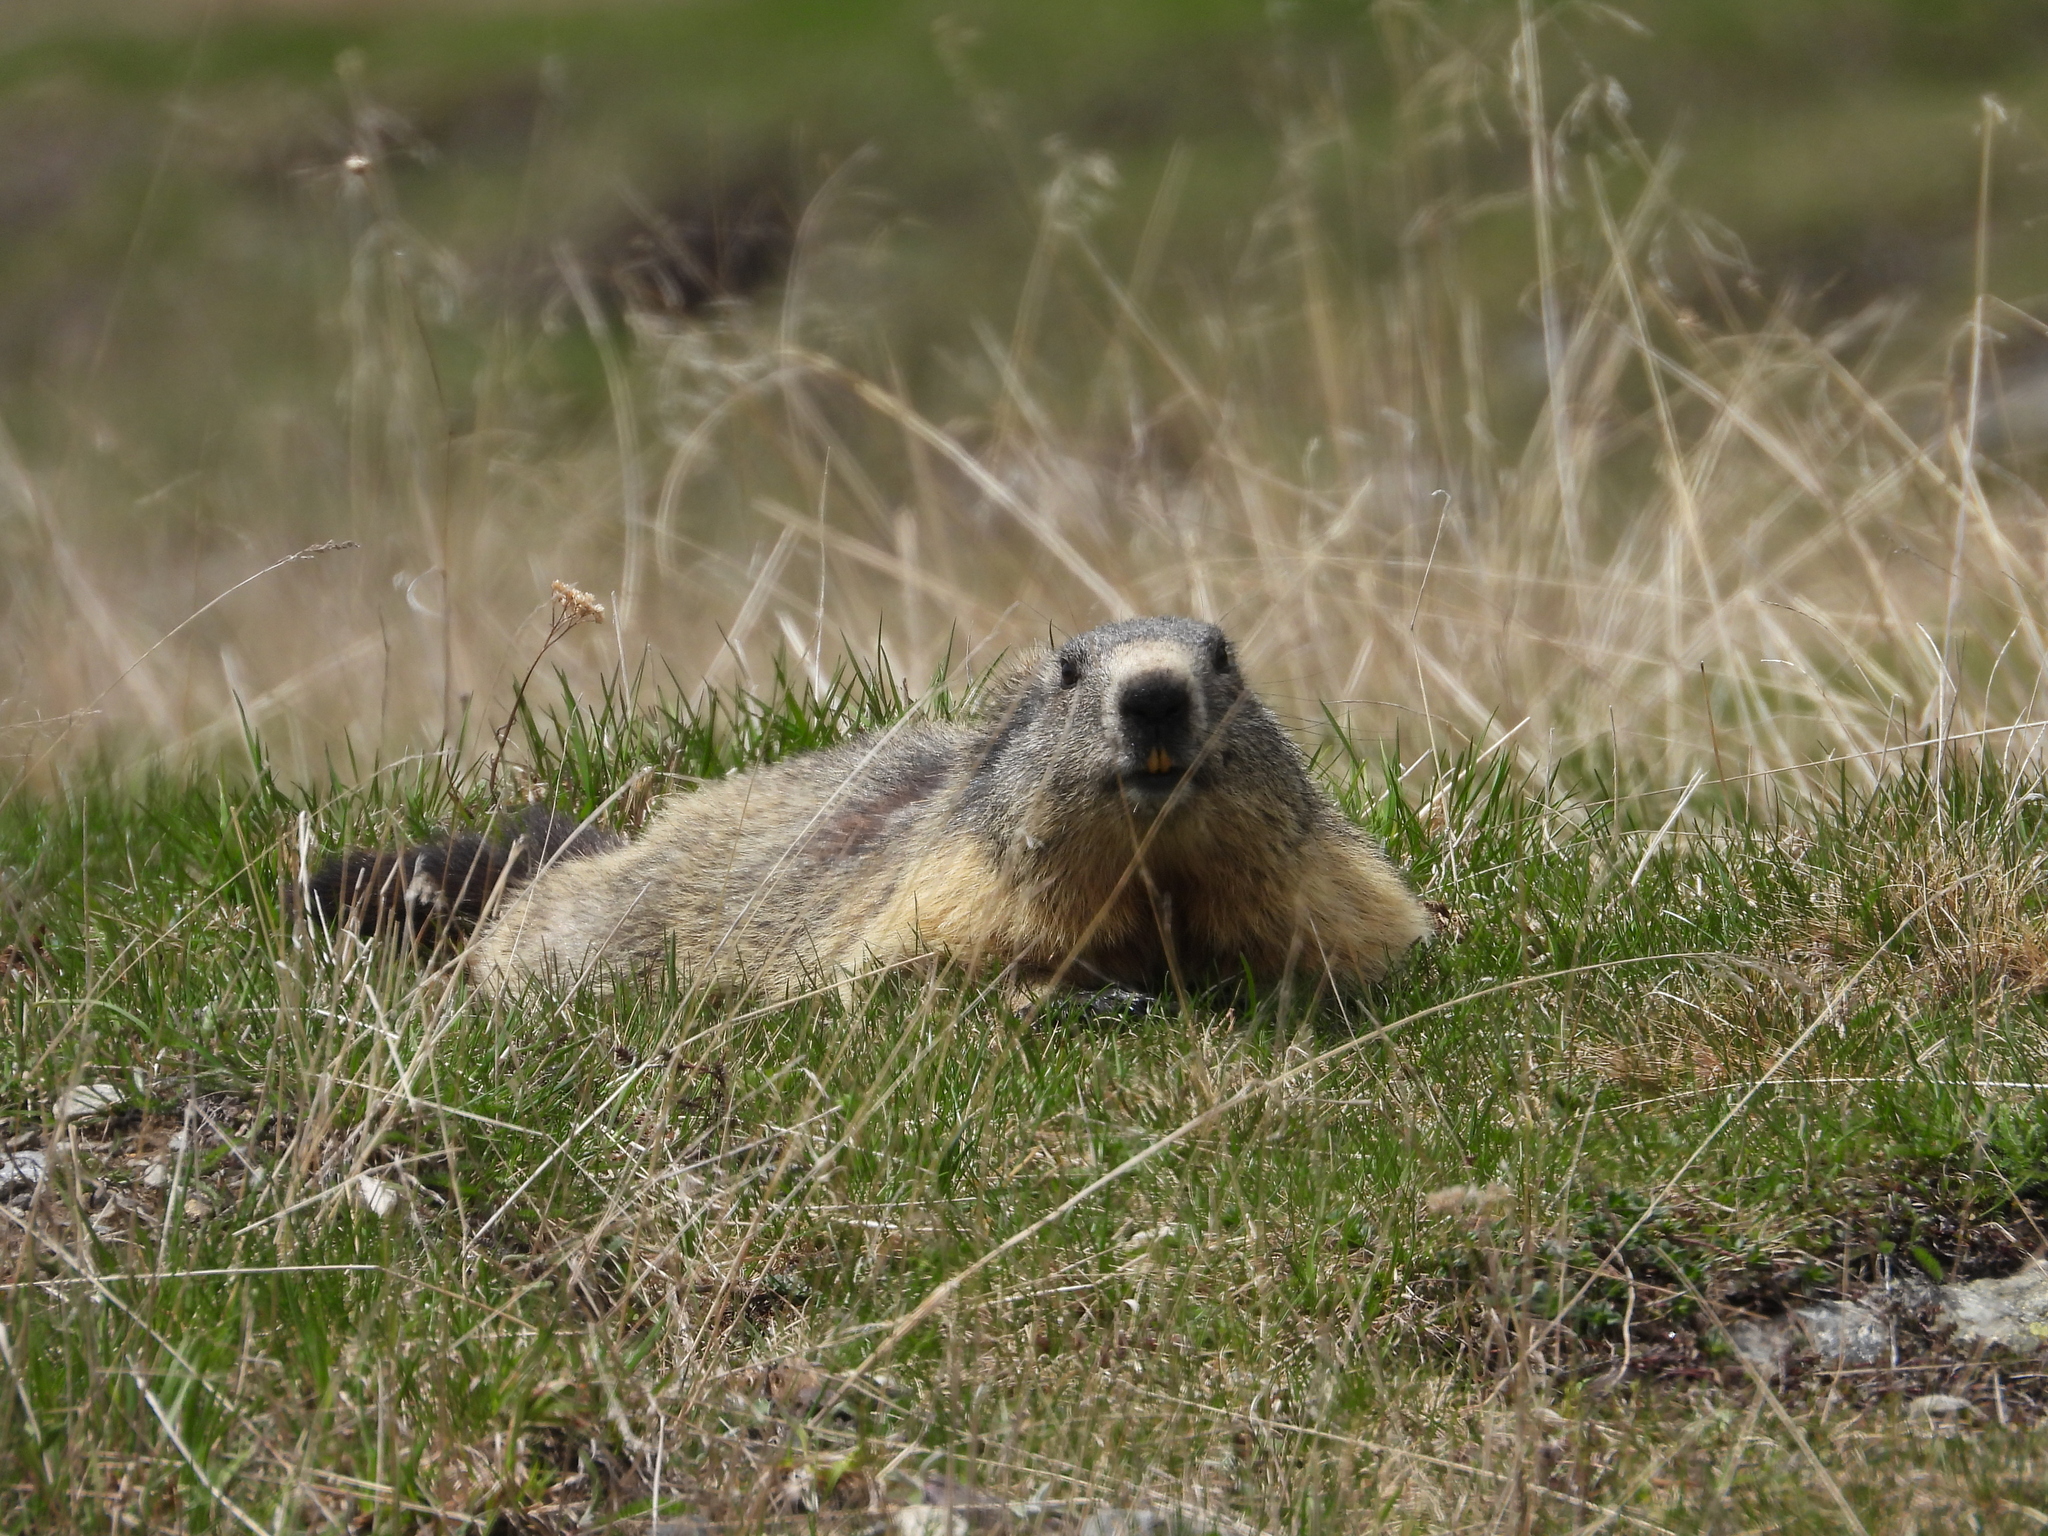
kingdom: Animalia
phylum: Chordata
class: Mammalia
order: Rodentia
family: Sciuridae
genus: Marmota
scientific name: Marmota marmota
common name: Alpine marmot
